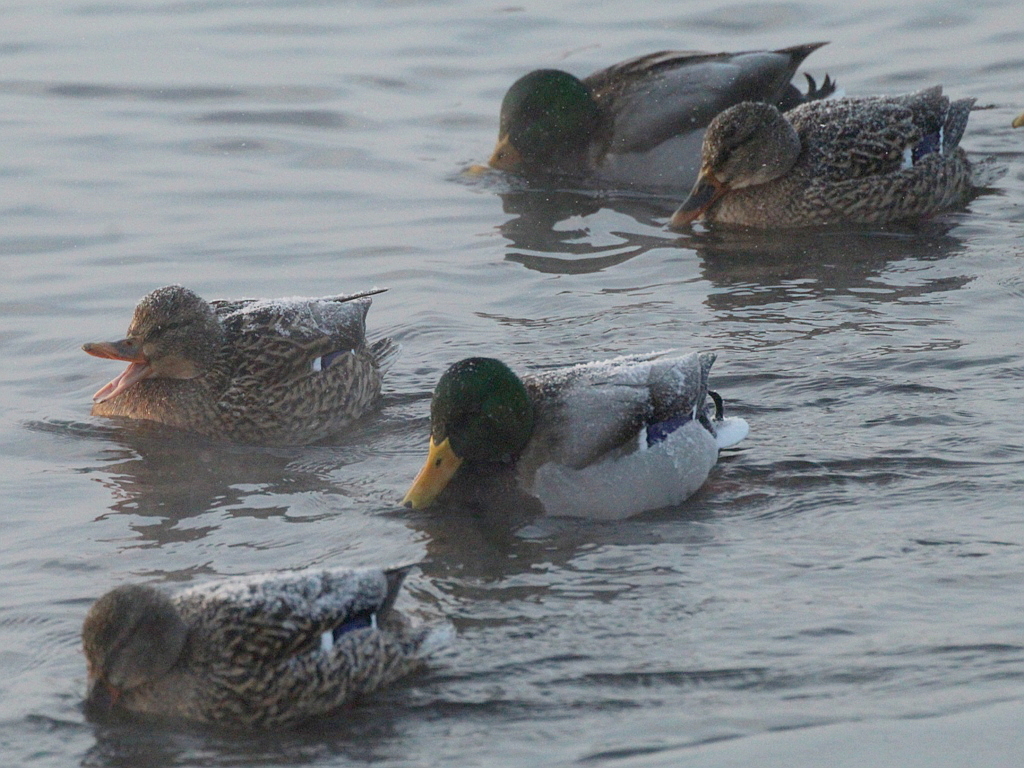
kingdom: Animalia
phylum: Chordata
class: Aves
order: Anseriformes
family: Anatidae
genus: Anas
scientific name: Anas platyrhynchos
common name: Mallard
